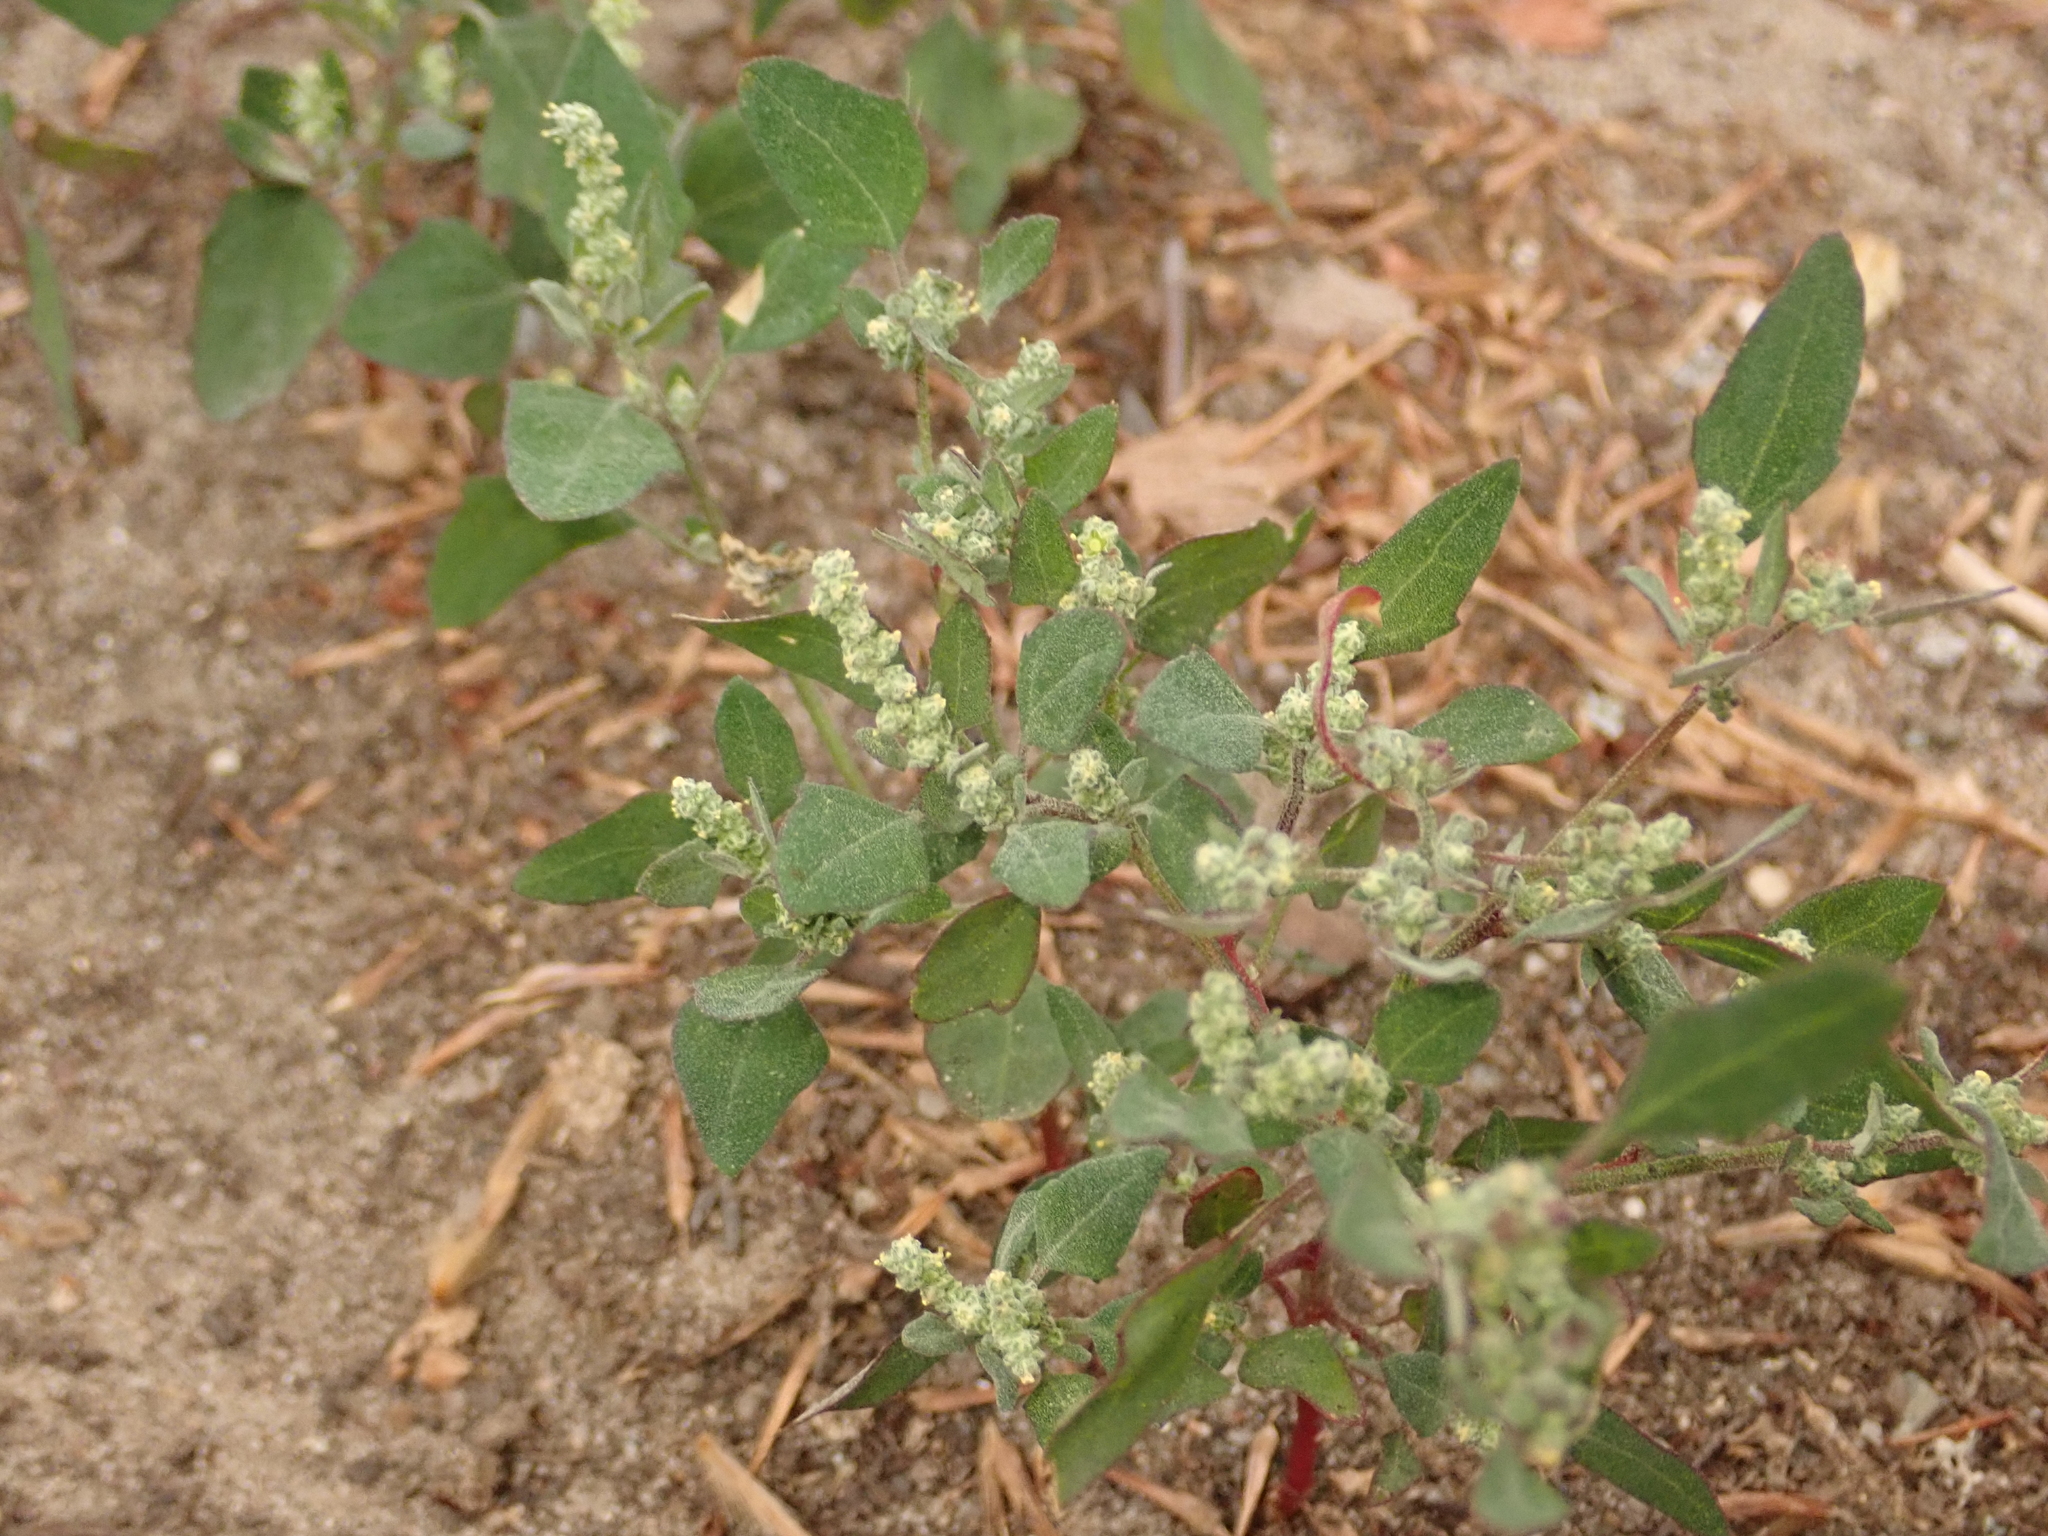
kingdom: Plantae
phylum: Tracheophyta
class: Magnoliopsida
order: Caryophyllales
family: Amaranthaceae
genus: Chenopodium
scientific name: Chenopodium album
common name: Fat-hen
